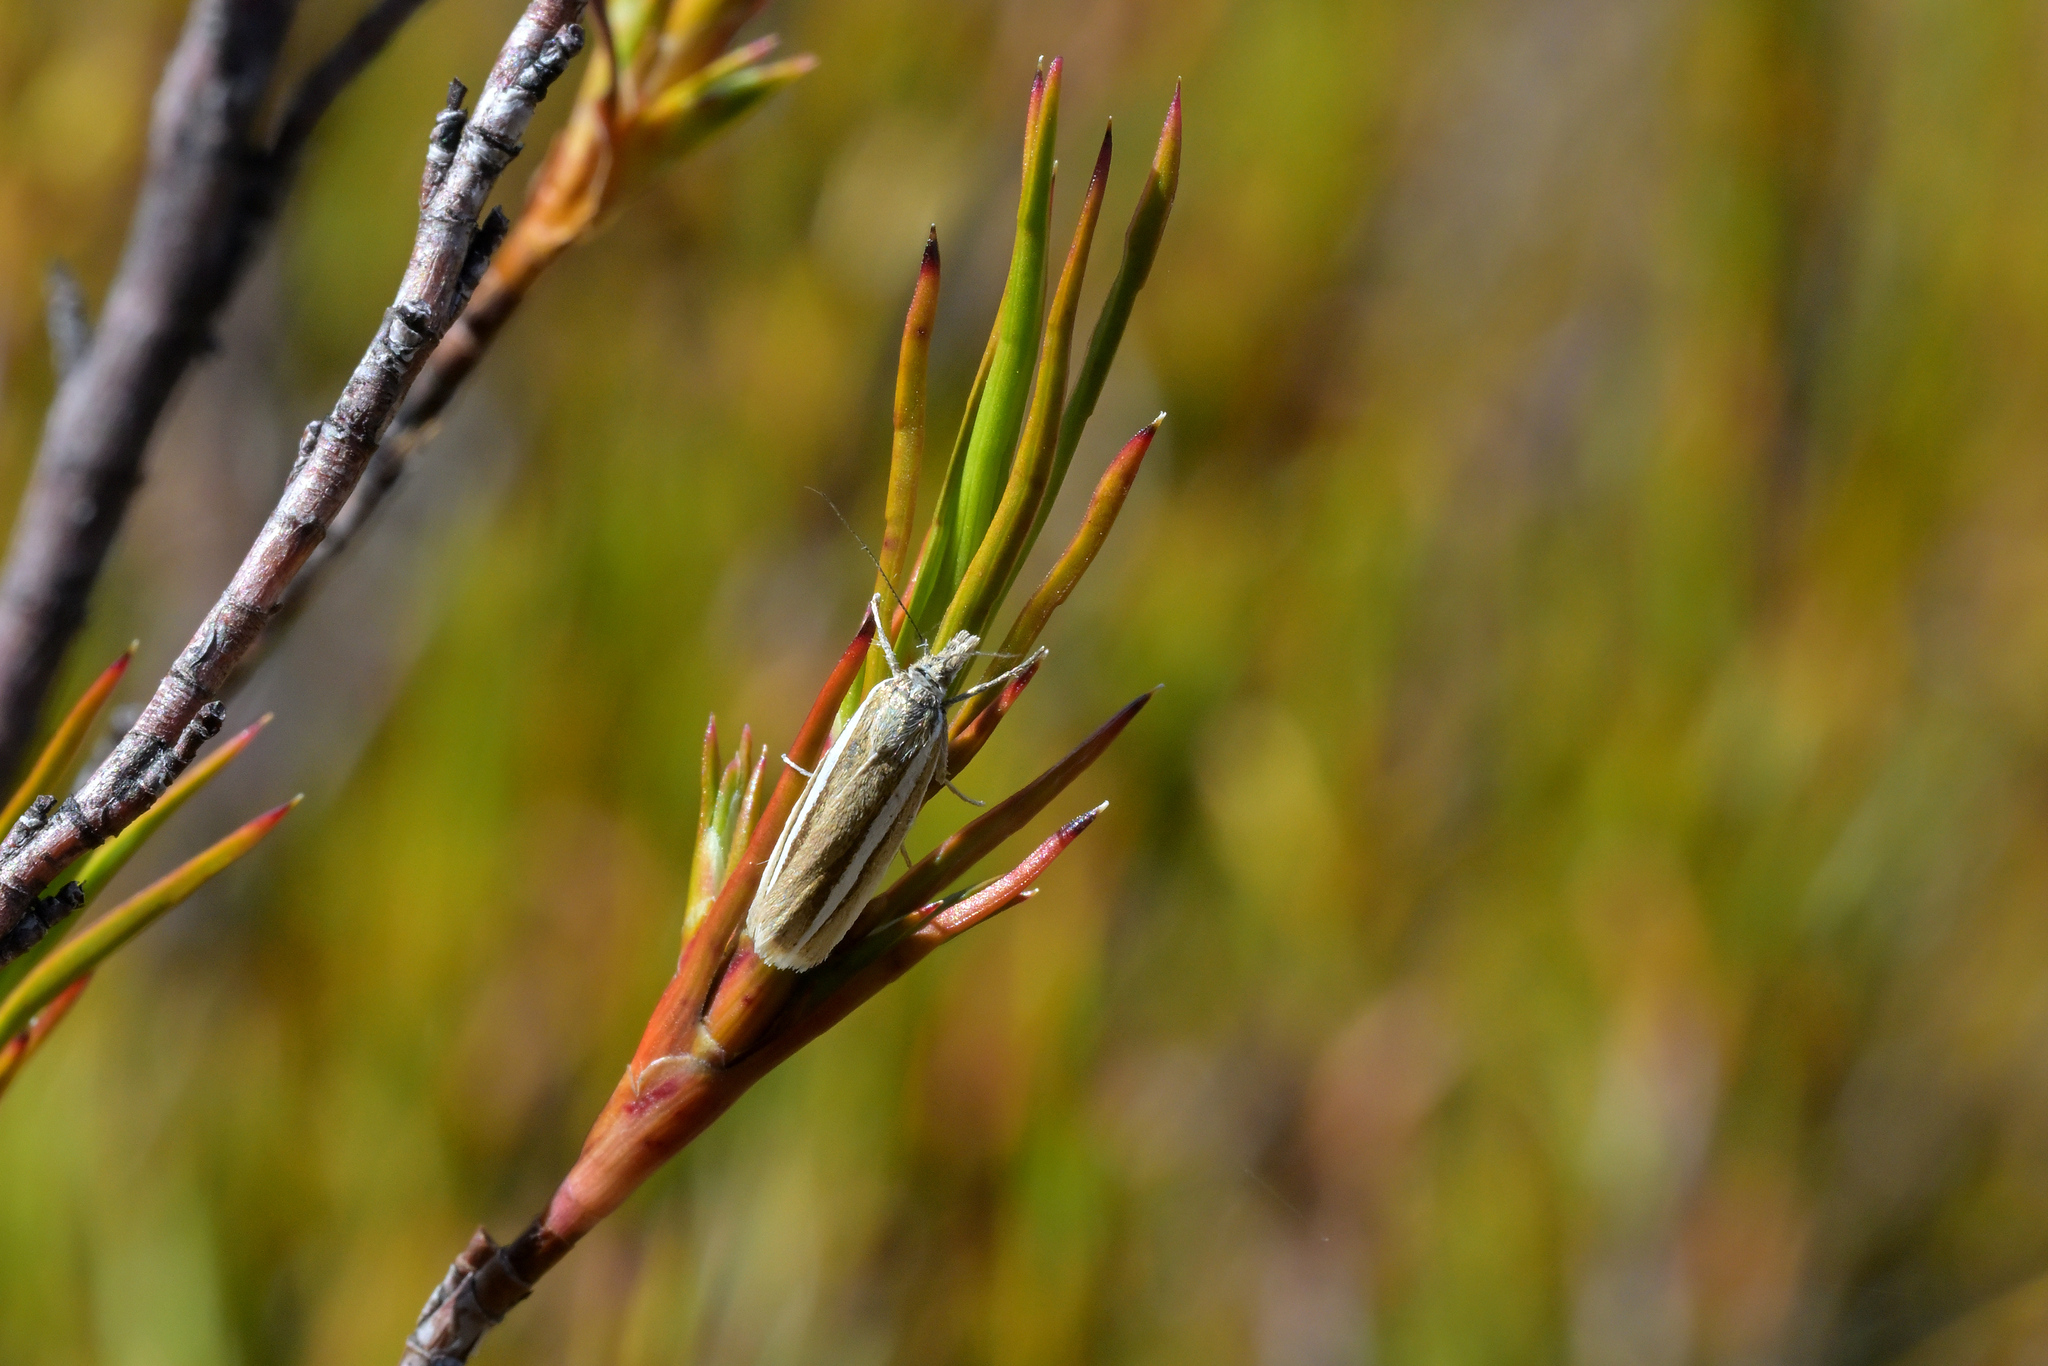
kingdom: Animalia
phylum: Arthropoda
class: Insecta
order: Lepidoptera
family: Crambidae
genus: Orocrambus
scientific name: Orocrambus aethonellus
